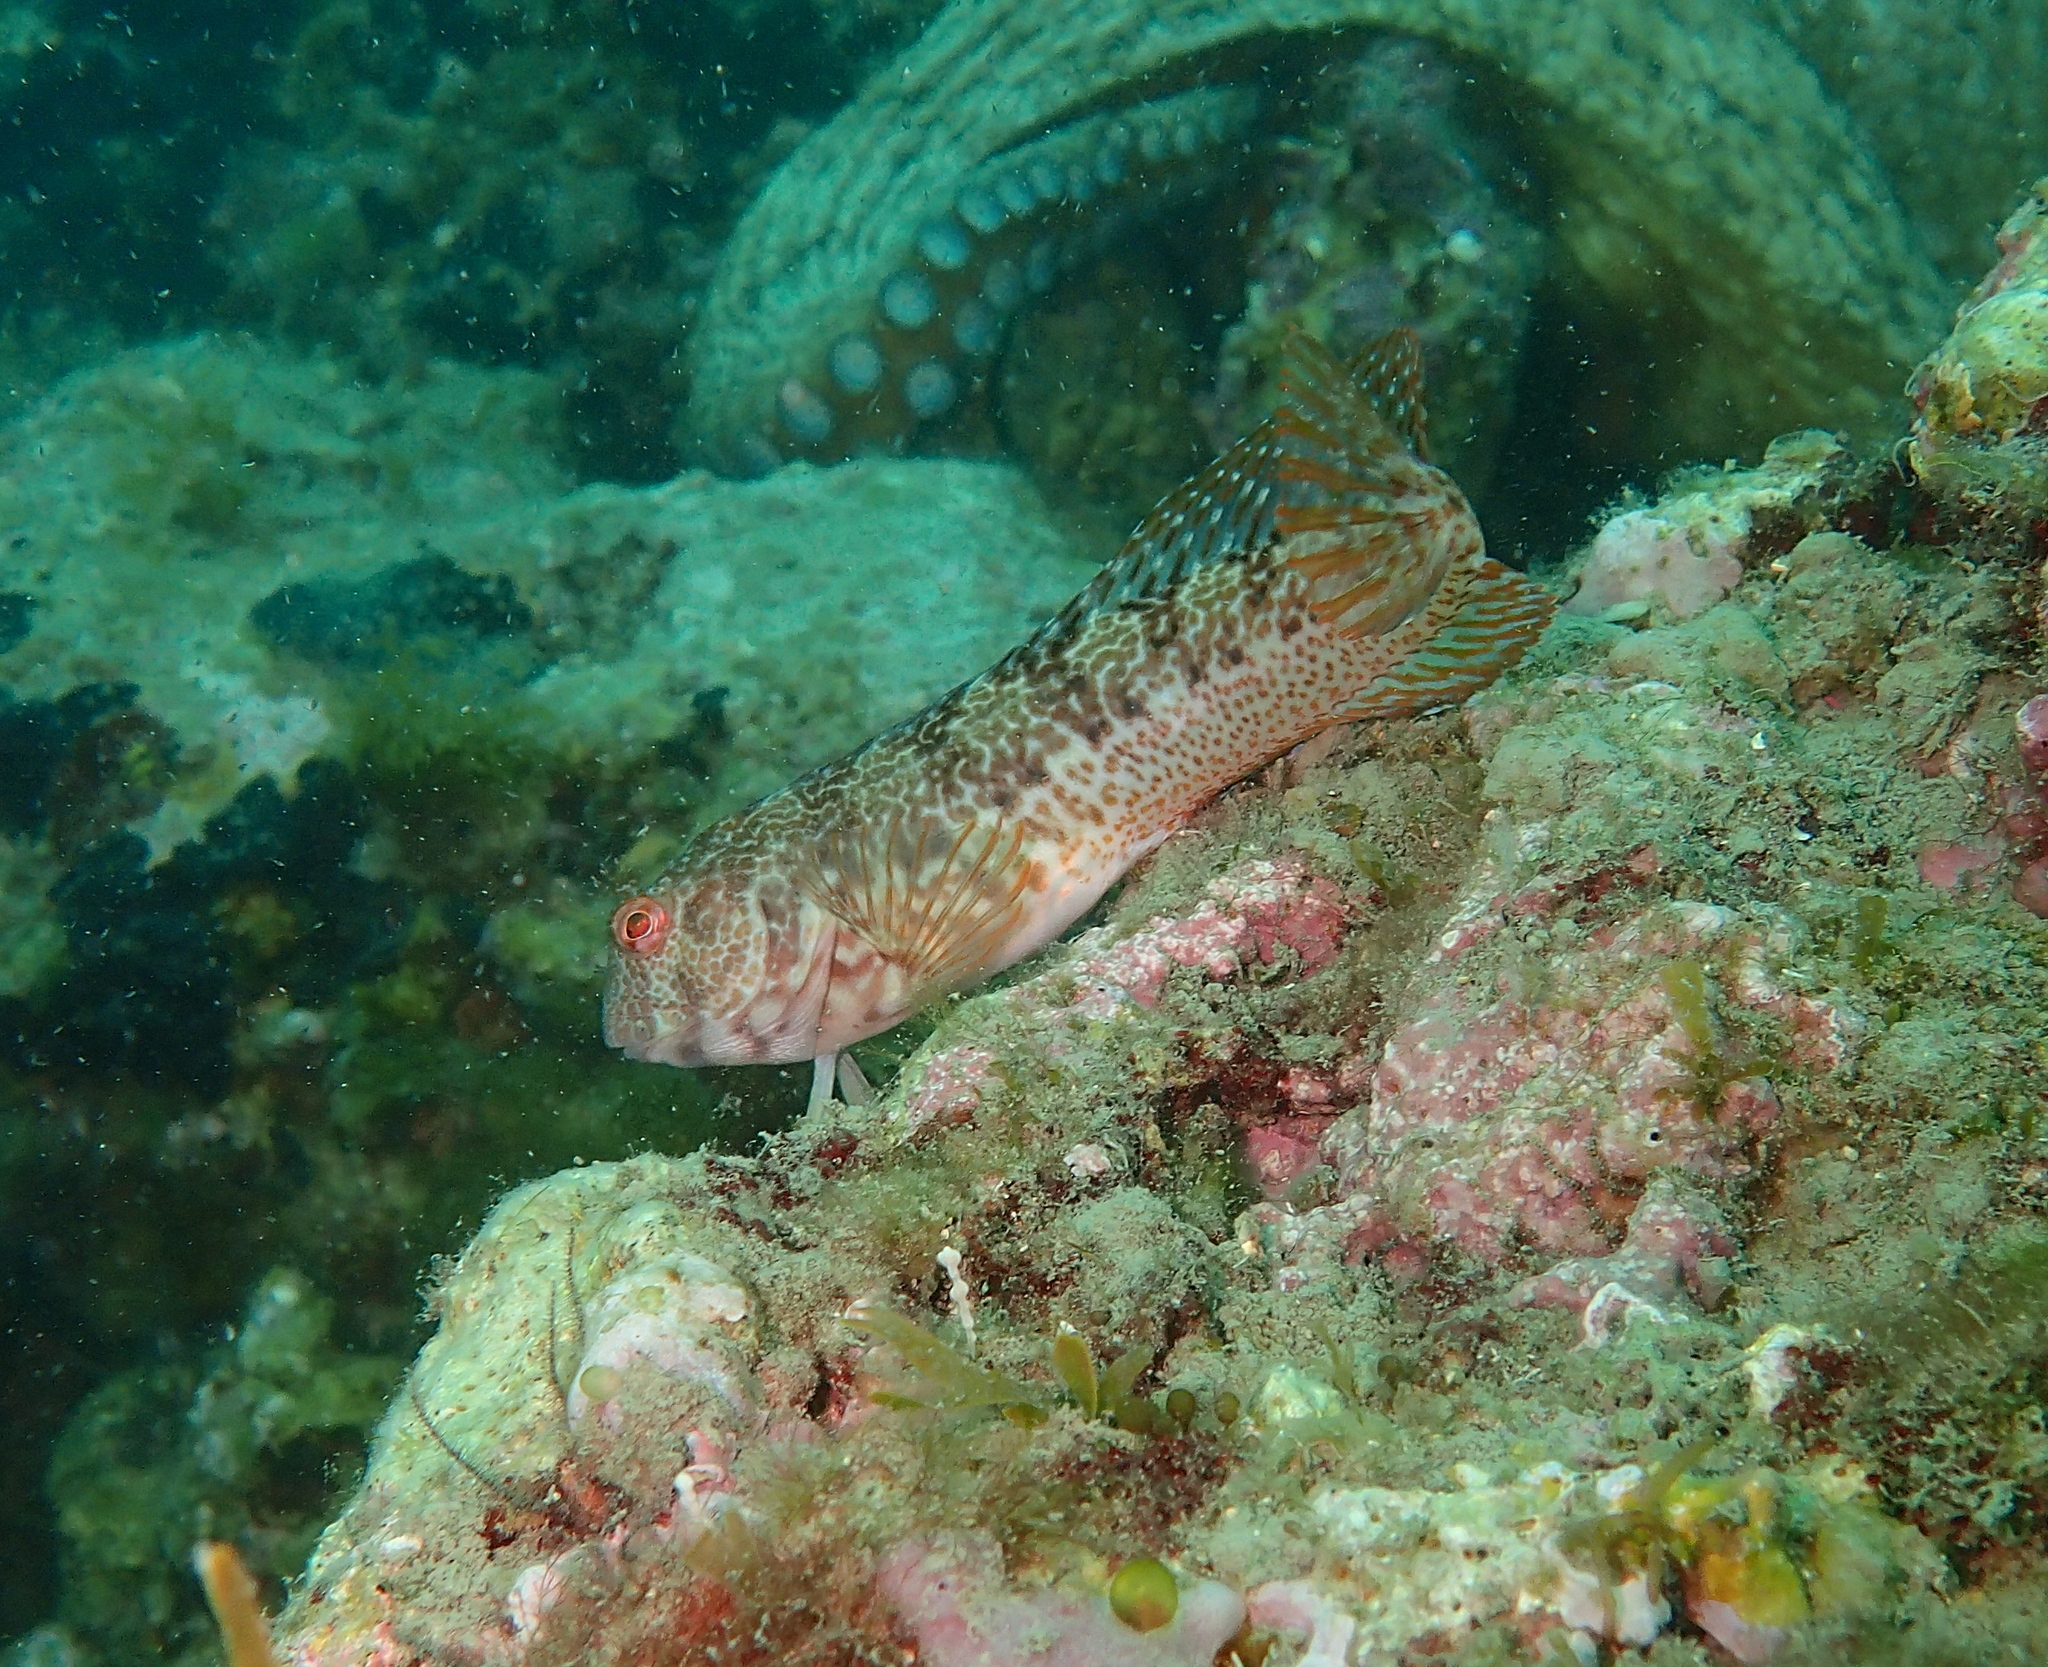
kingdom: Animalia
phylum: Chordata
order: Perciformes
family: Blenniidae
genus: Parablennius
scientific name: Parablennius pilicornis
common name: Ringneck blenny
